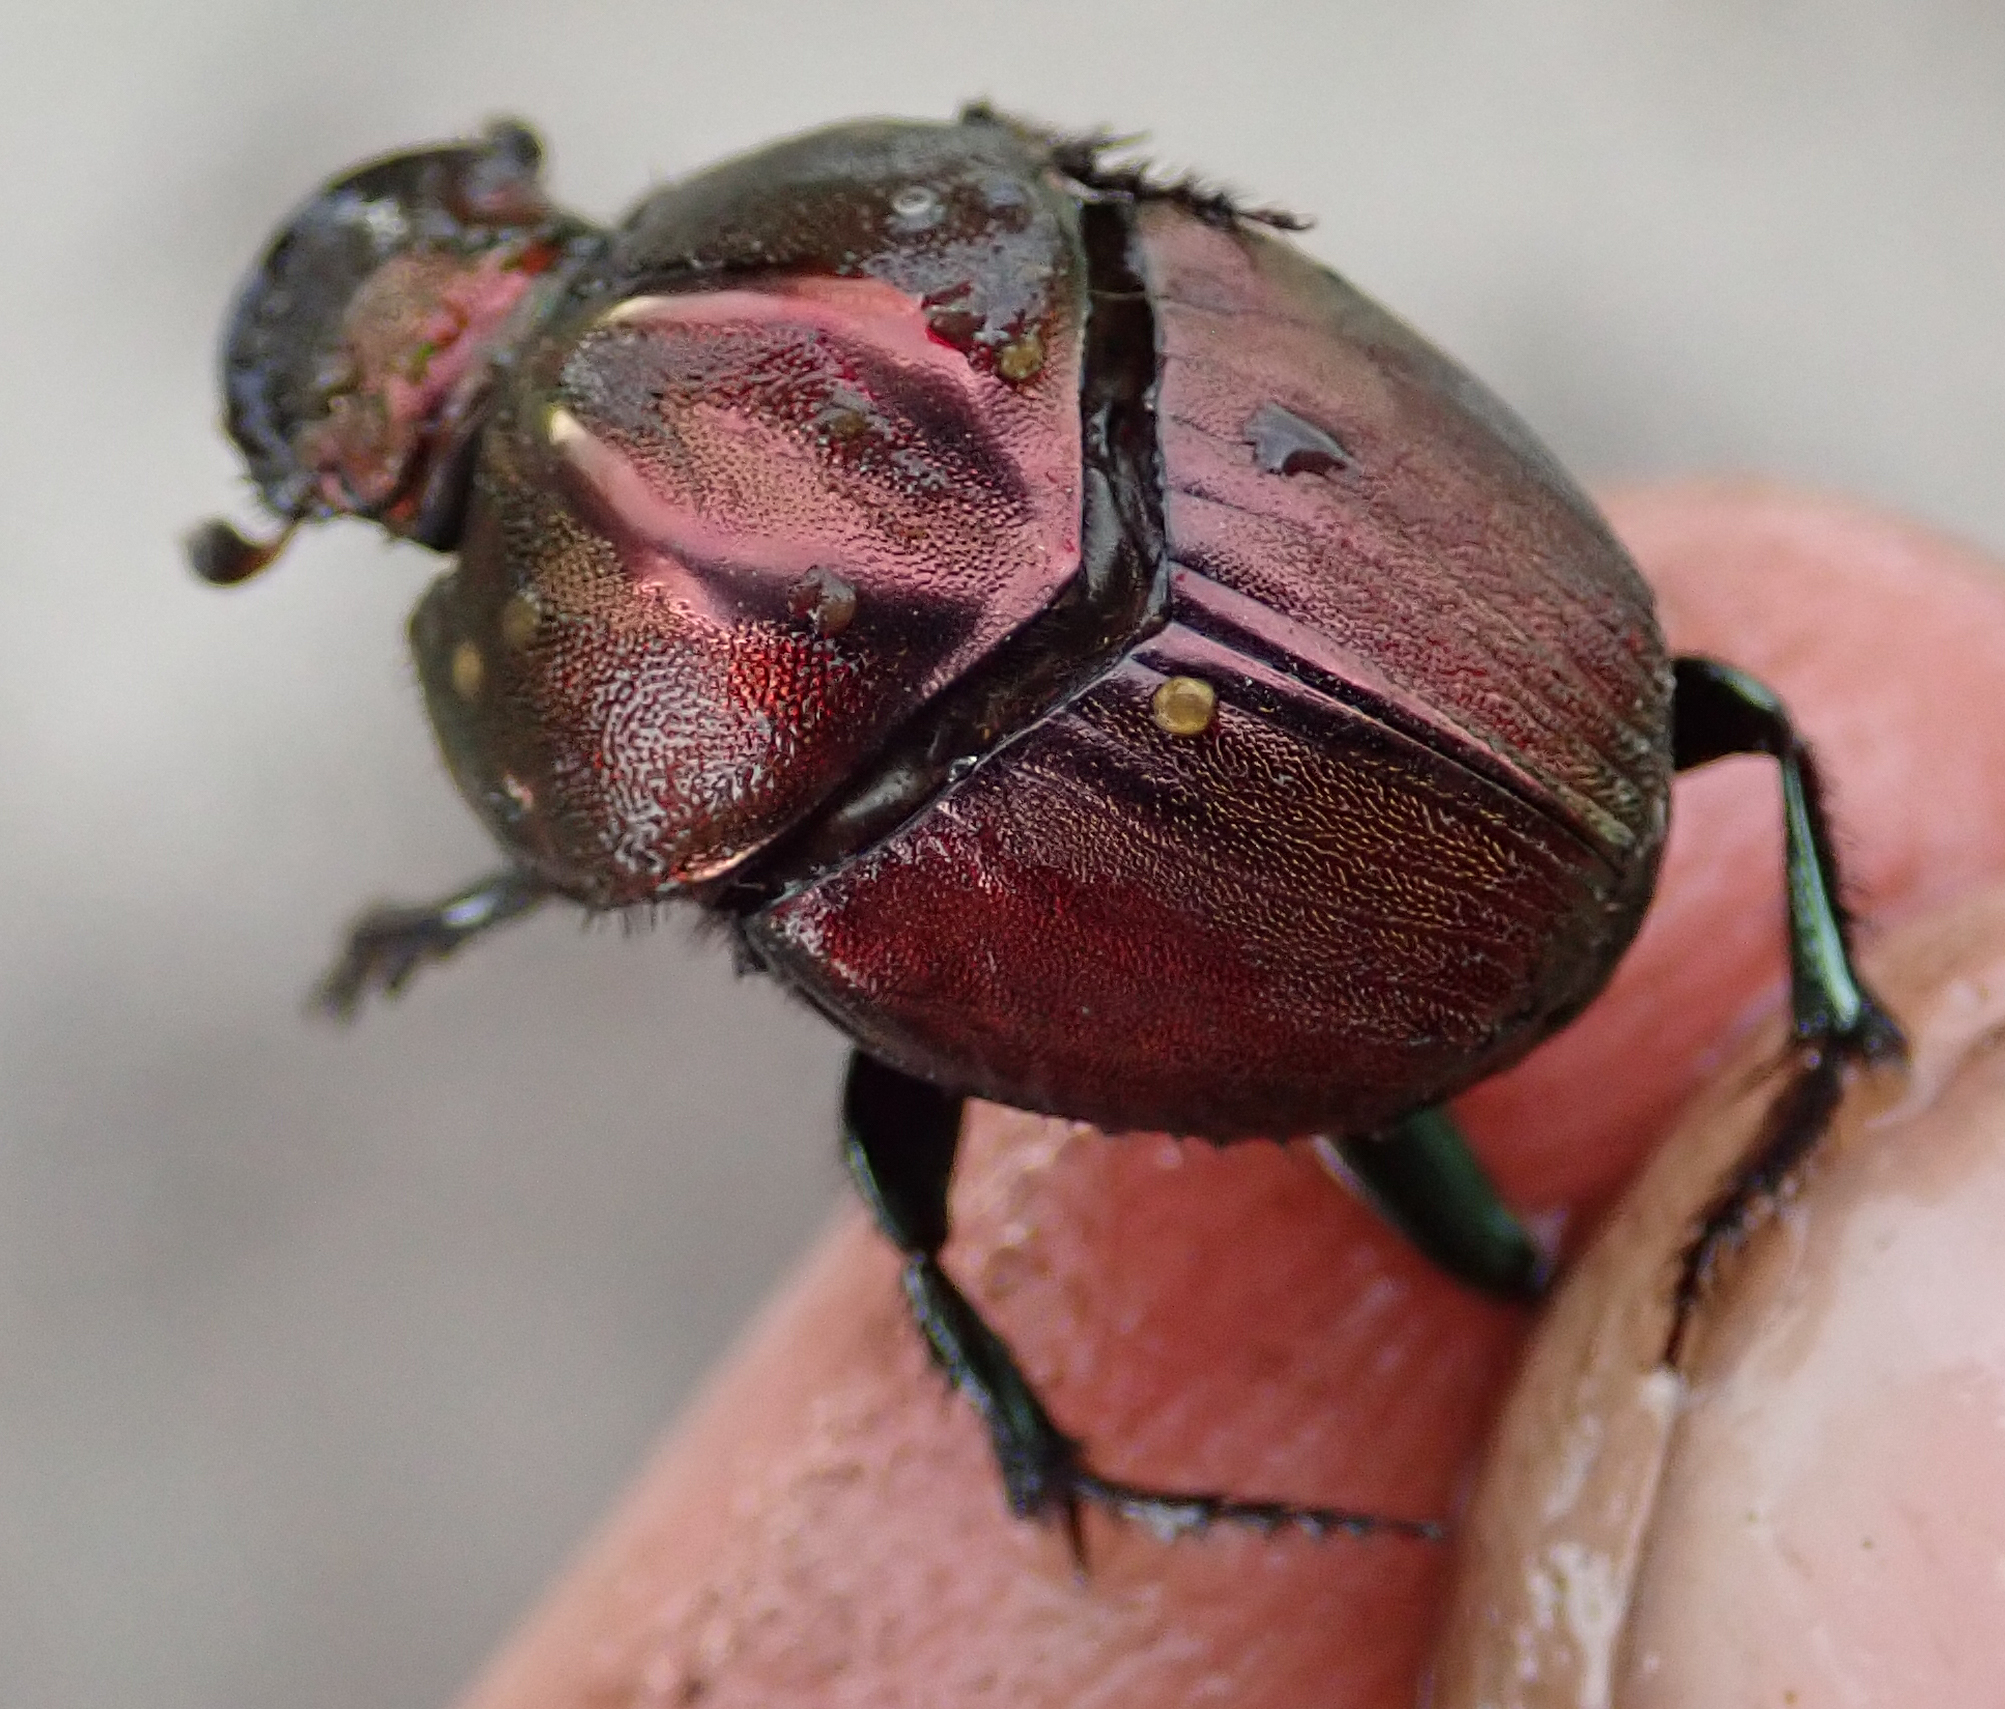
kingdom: Animalia
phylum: Arthropoda
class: Insecta
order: Coleoptera
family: Scarabaeidae
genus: Proagoderus
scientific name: Proagoderus bicallosus
